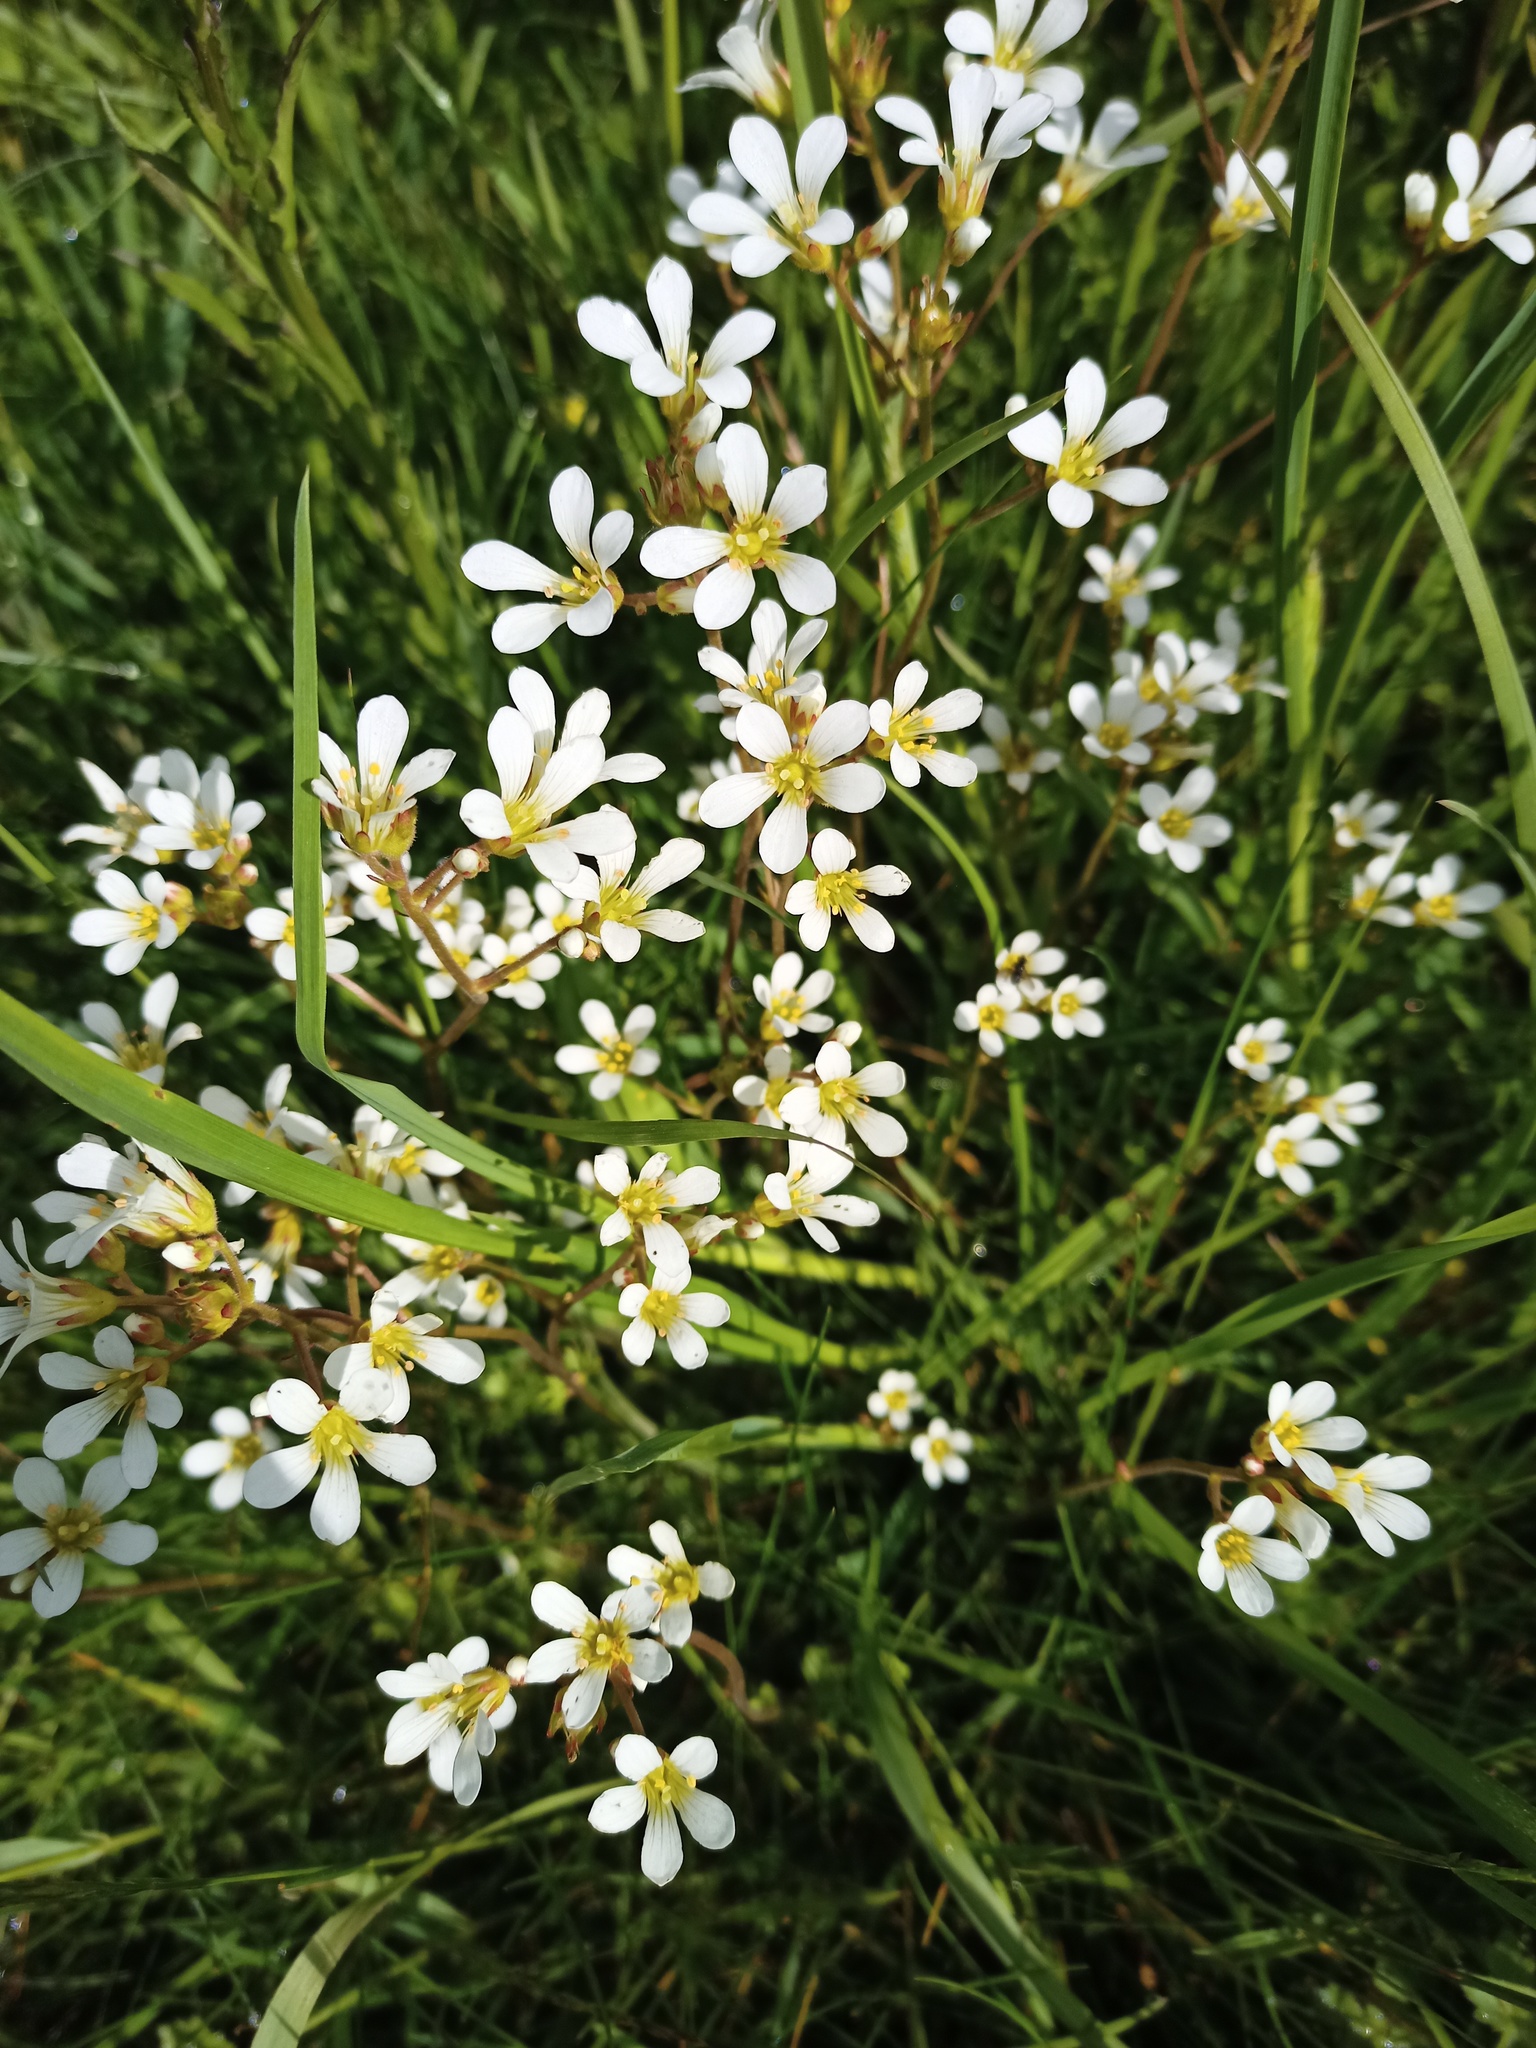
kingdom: Plantae
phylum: Tracheophyta
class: Magnoliopsida
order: Saxifragales
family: Saxifragaceae
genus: Saxifraga
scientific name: Saxifraga granulata
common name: Meadow saxifrage
